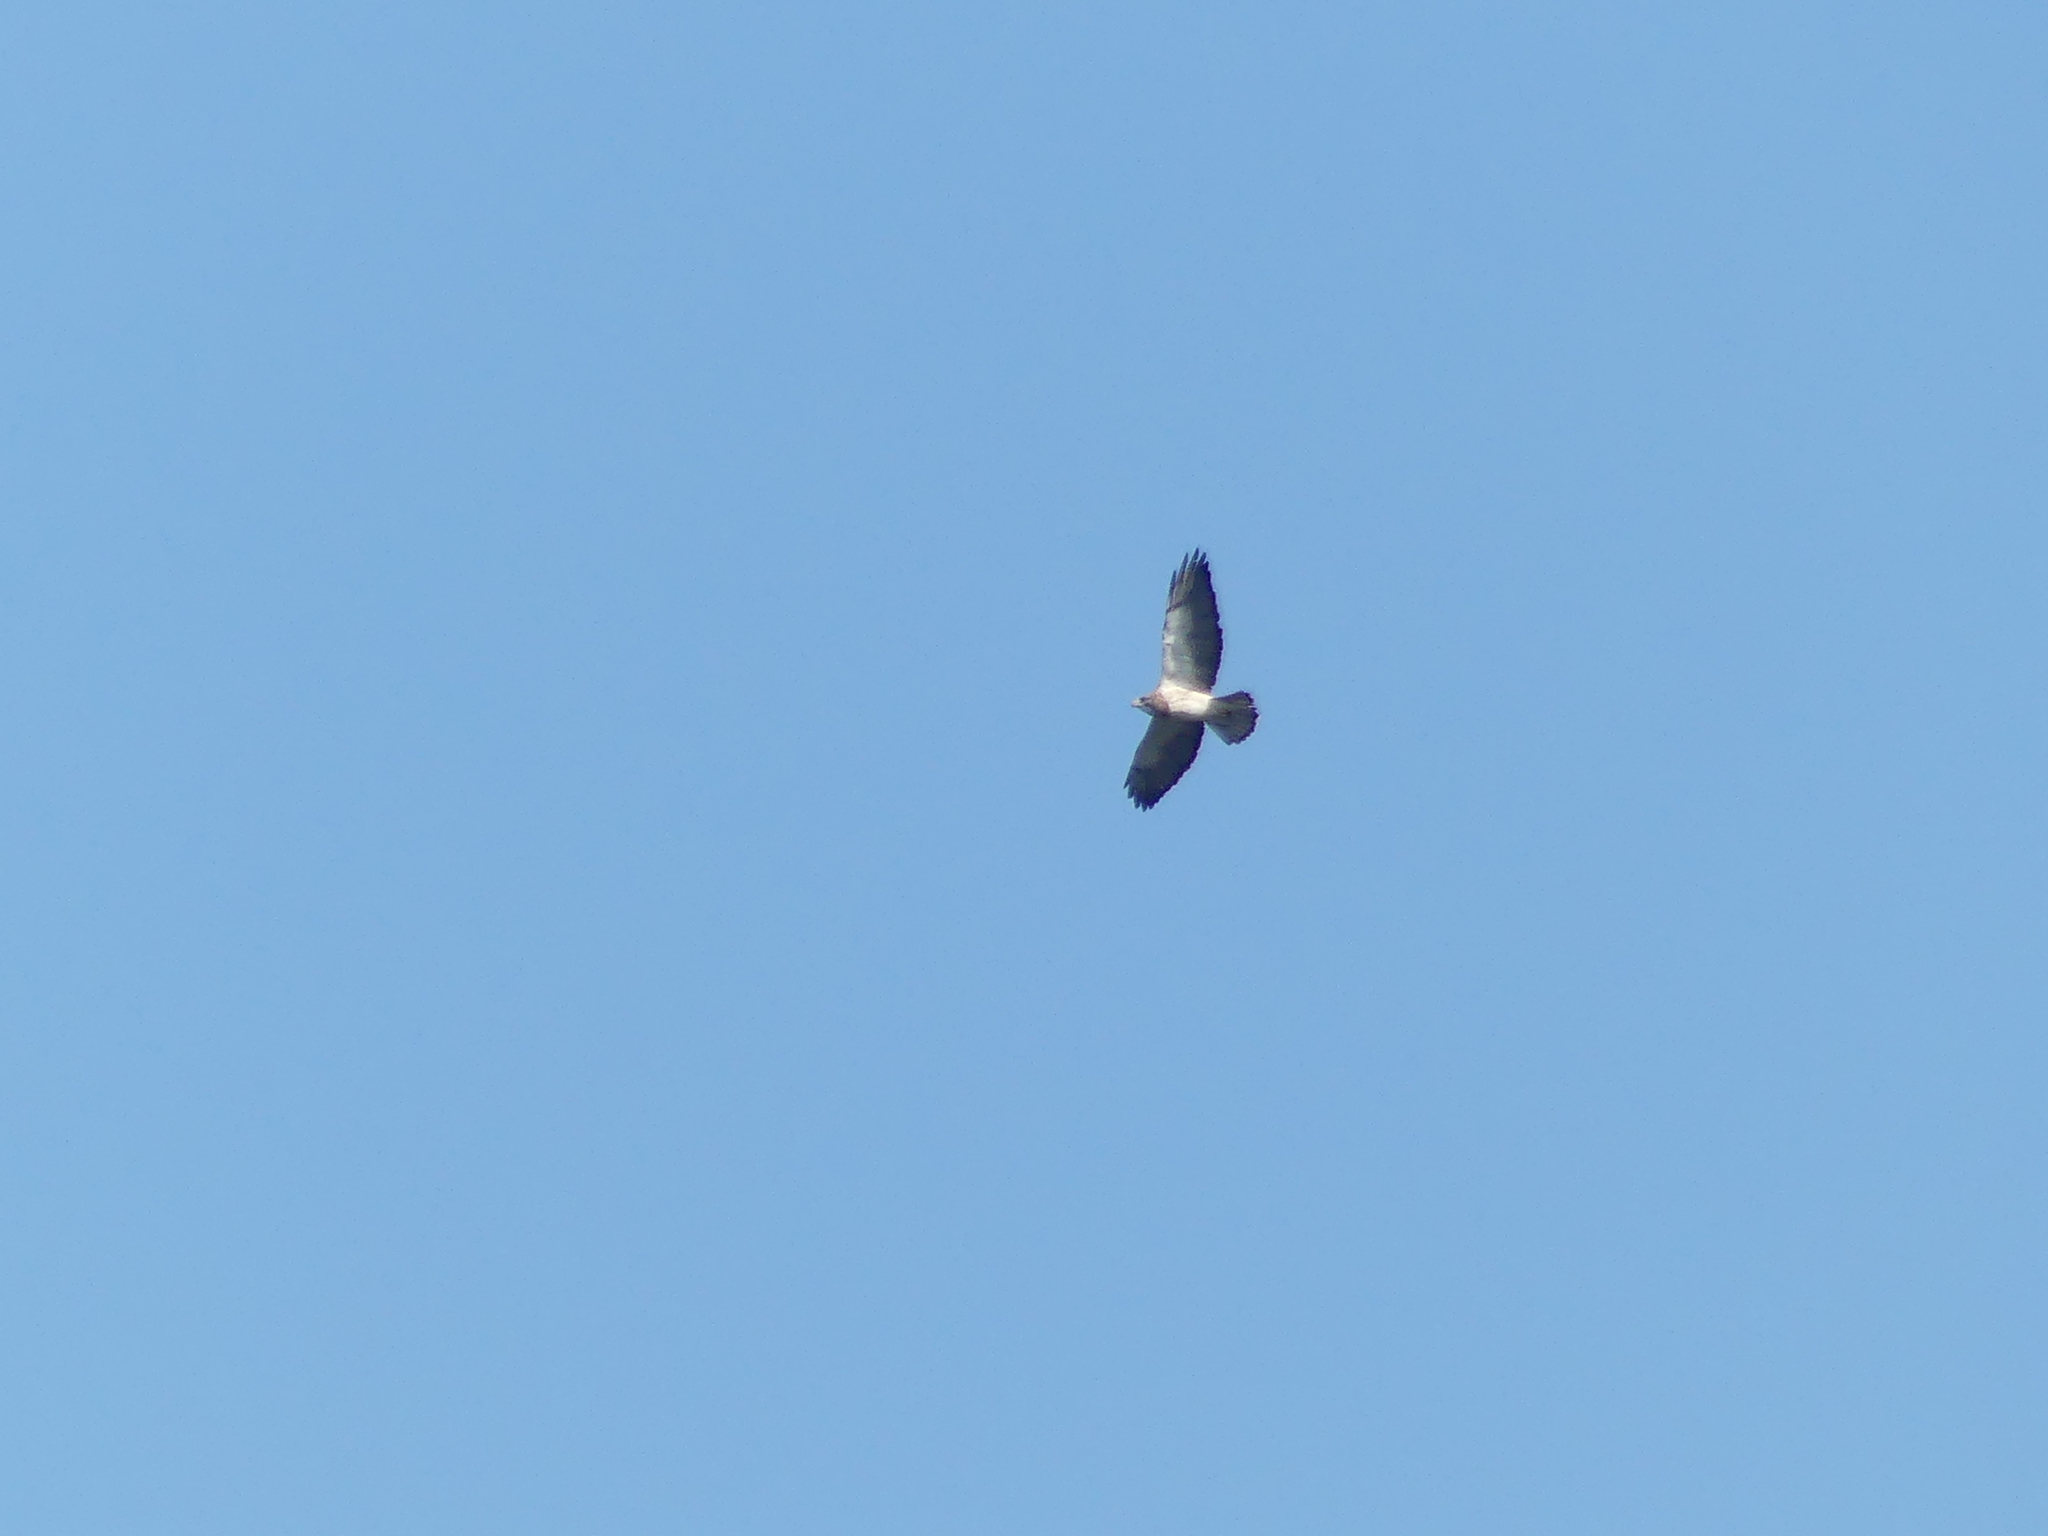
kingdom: Animalia
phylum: Chordata
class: Aves
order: Accipitriformes
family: Accipitridae
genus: Buteo
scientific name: Buteo swainsoni
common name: Swainson's hawk
